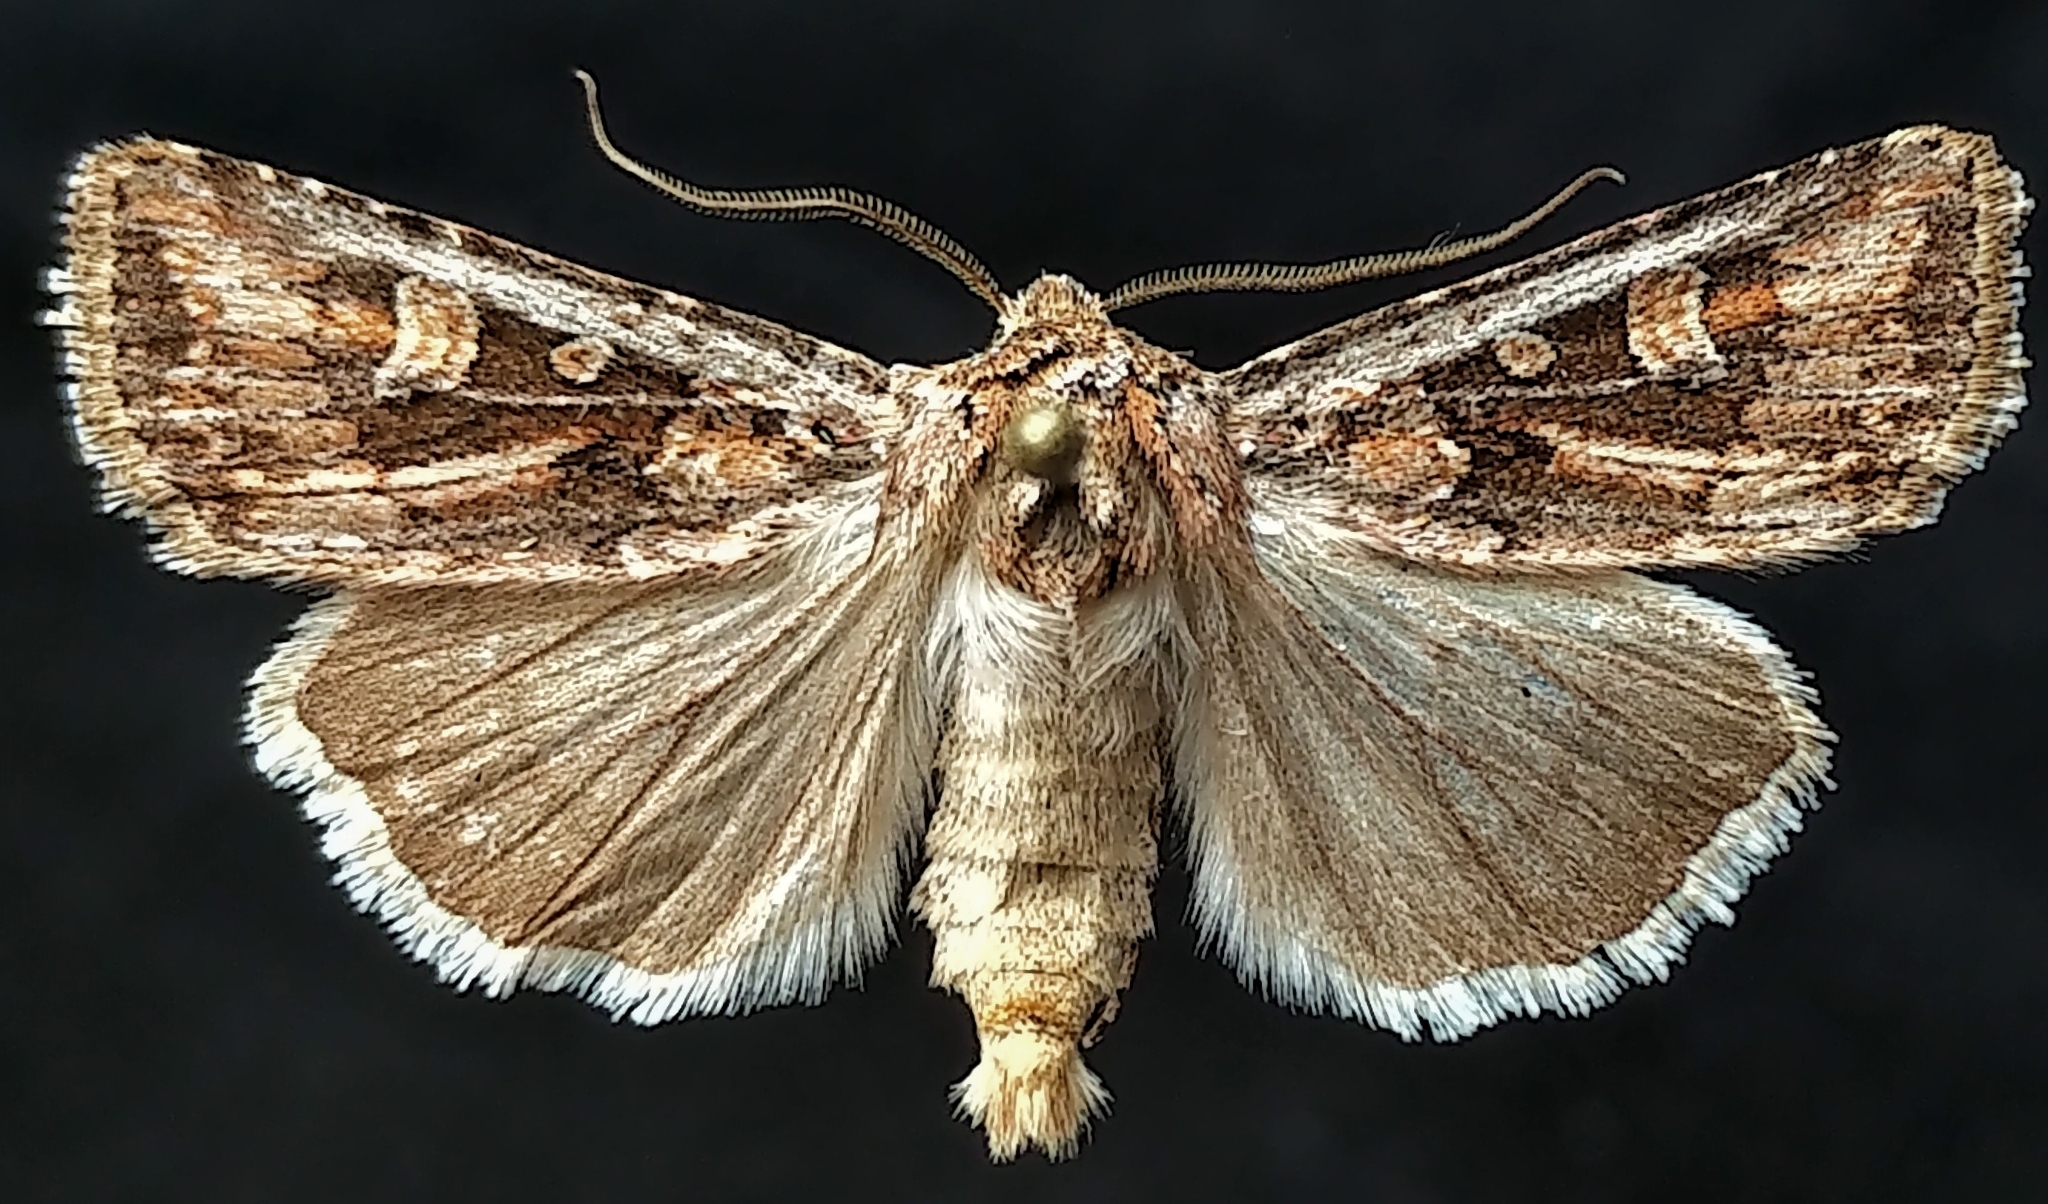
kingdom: Animalia
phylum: Arthropoda
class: Insecta
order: Lepidoptera
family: Noctuidae
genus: Euxoa
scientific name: Euxoa detersa
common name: Rubbed dart
